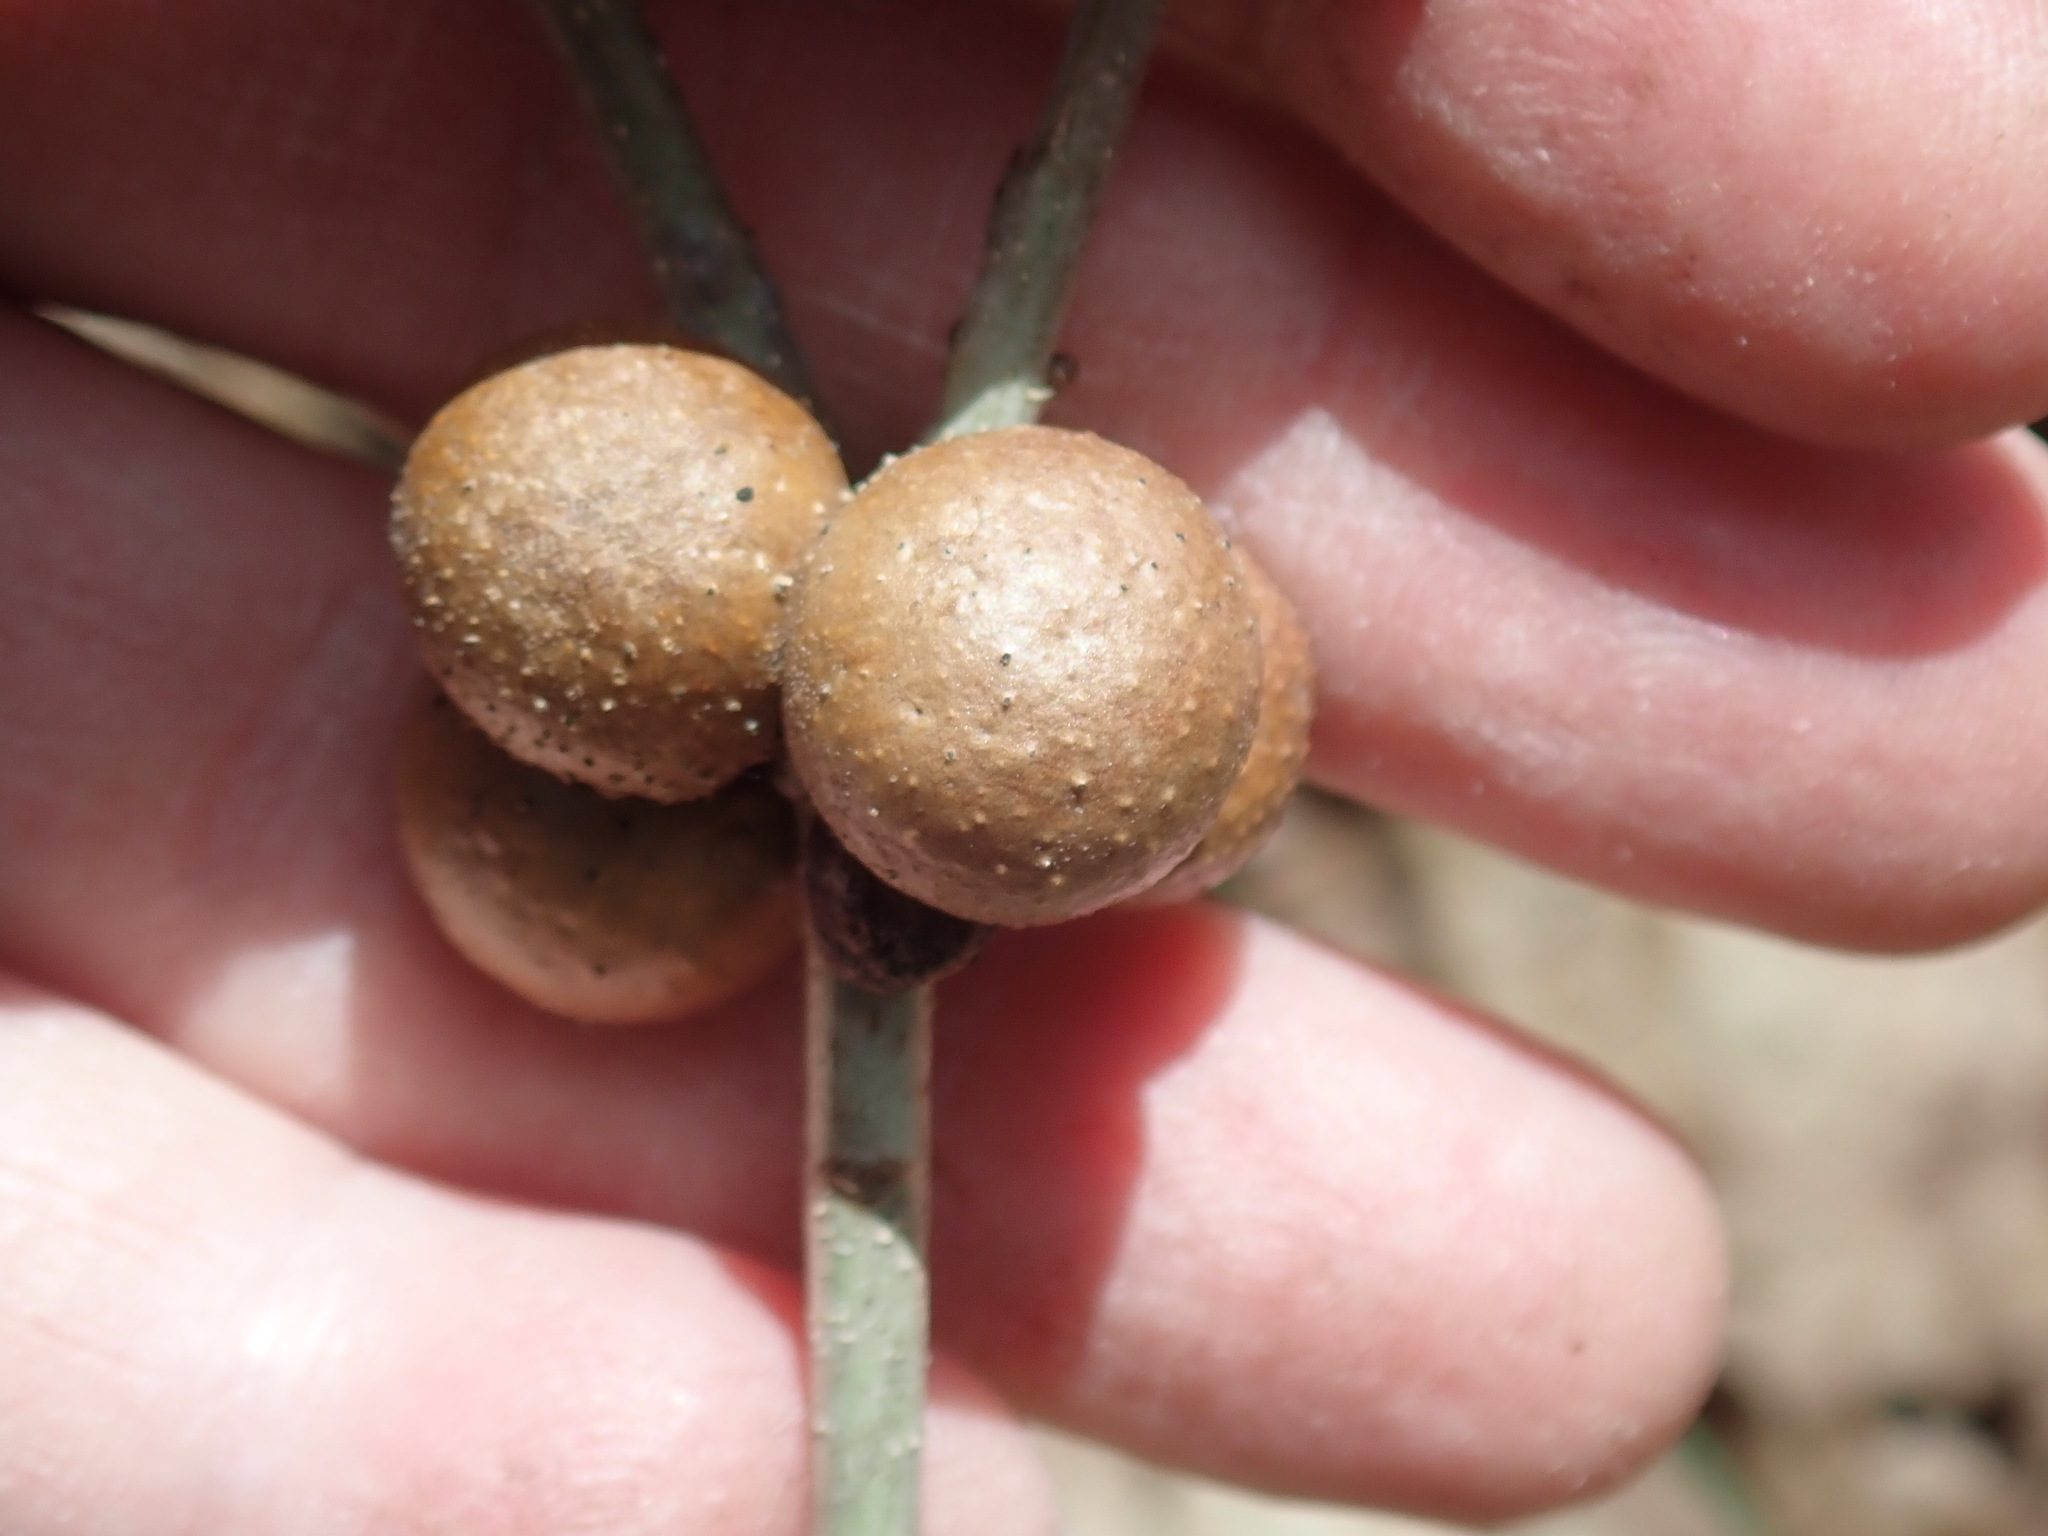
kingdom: Animalia
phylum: Arthropoda
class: Insecta
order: Hymenoptera
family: Cynipidae
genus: Disholcaspis
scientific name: Disholcaspis quercusglobulus
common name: Round bullet gall wasp
